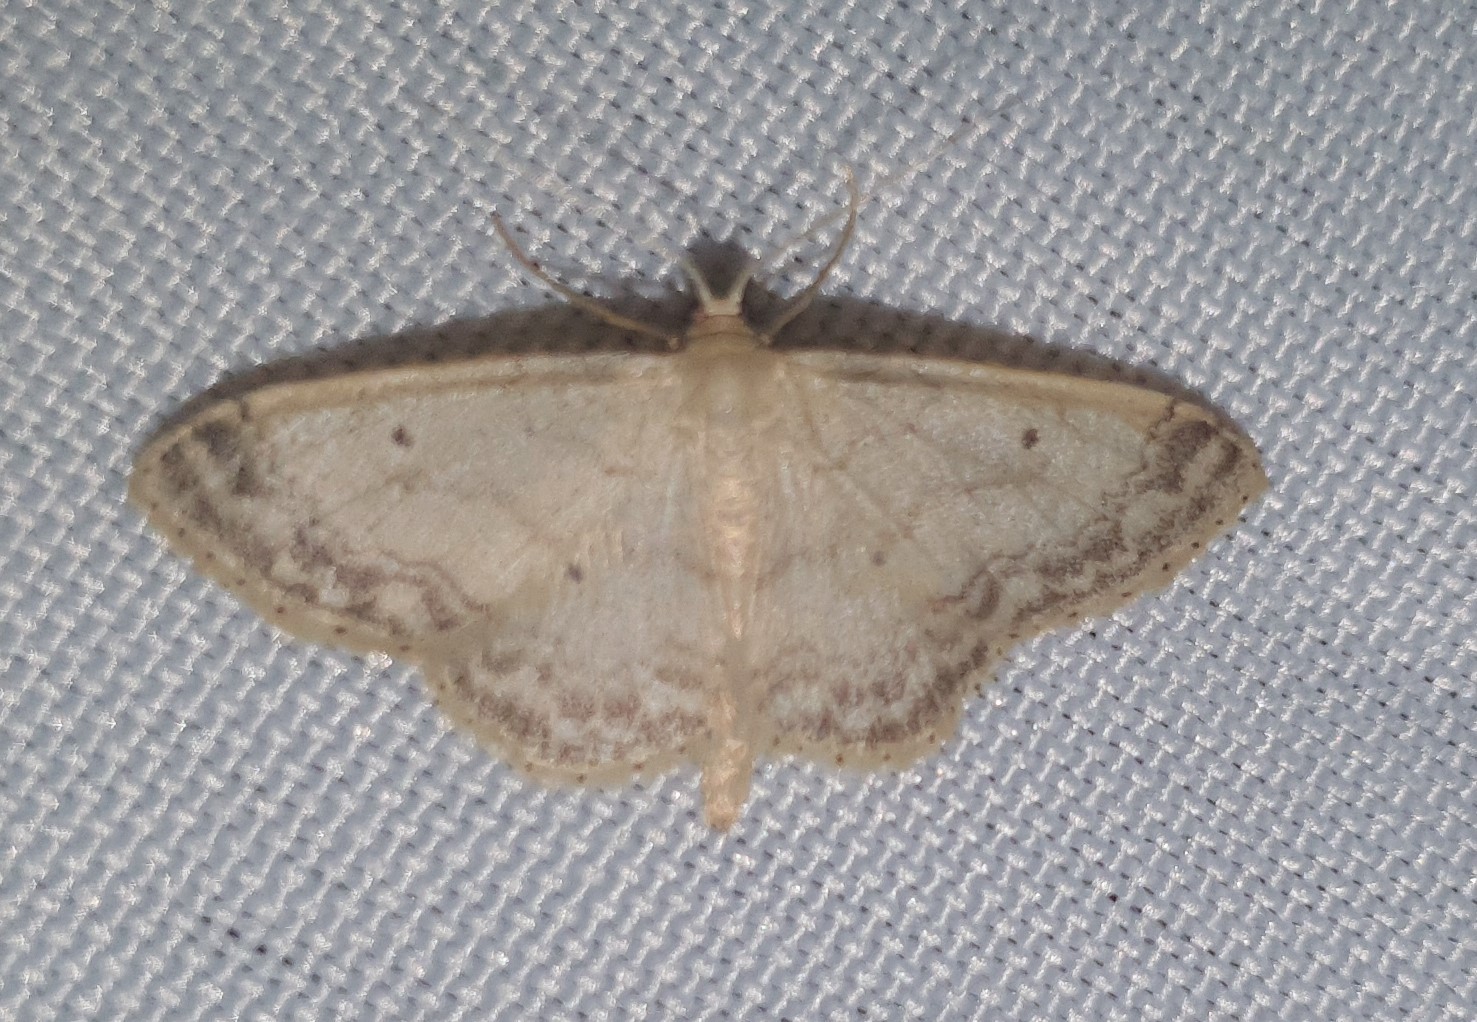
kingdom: Animalia
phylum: Arthropoda
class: Insecta
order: Lepidoptera
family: Geometridae
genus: Idaea
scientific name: Idaea biselata
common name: Small fan-footed wave
